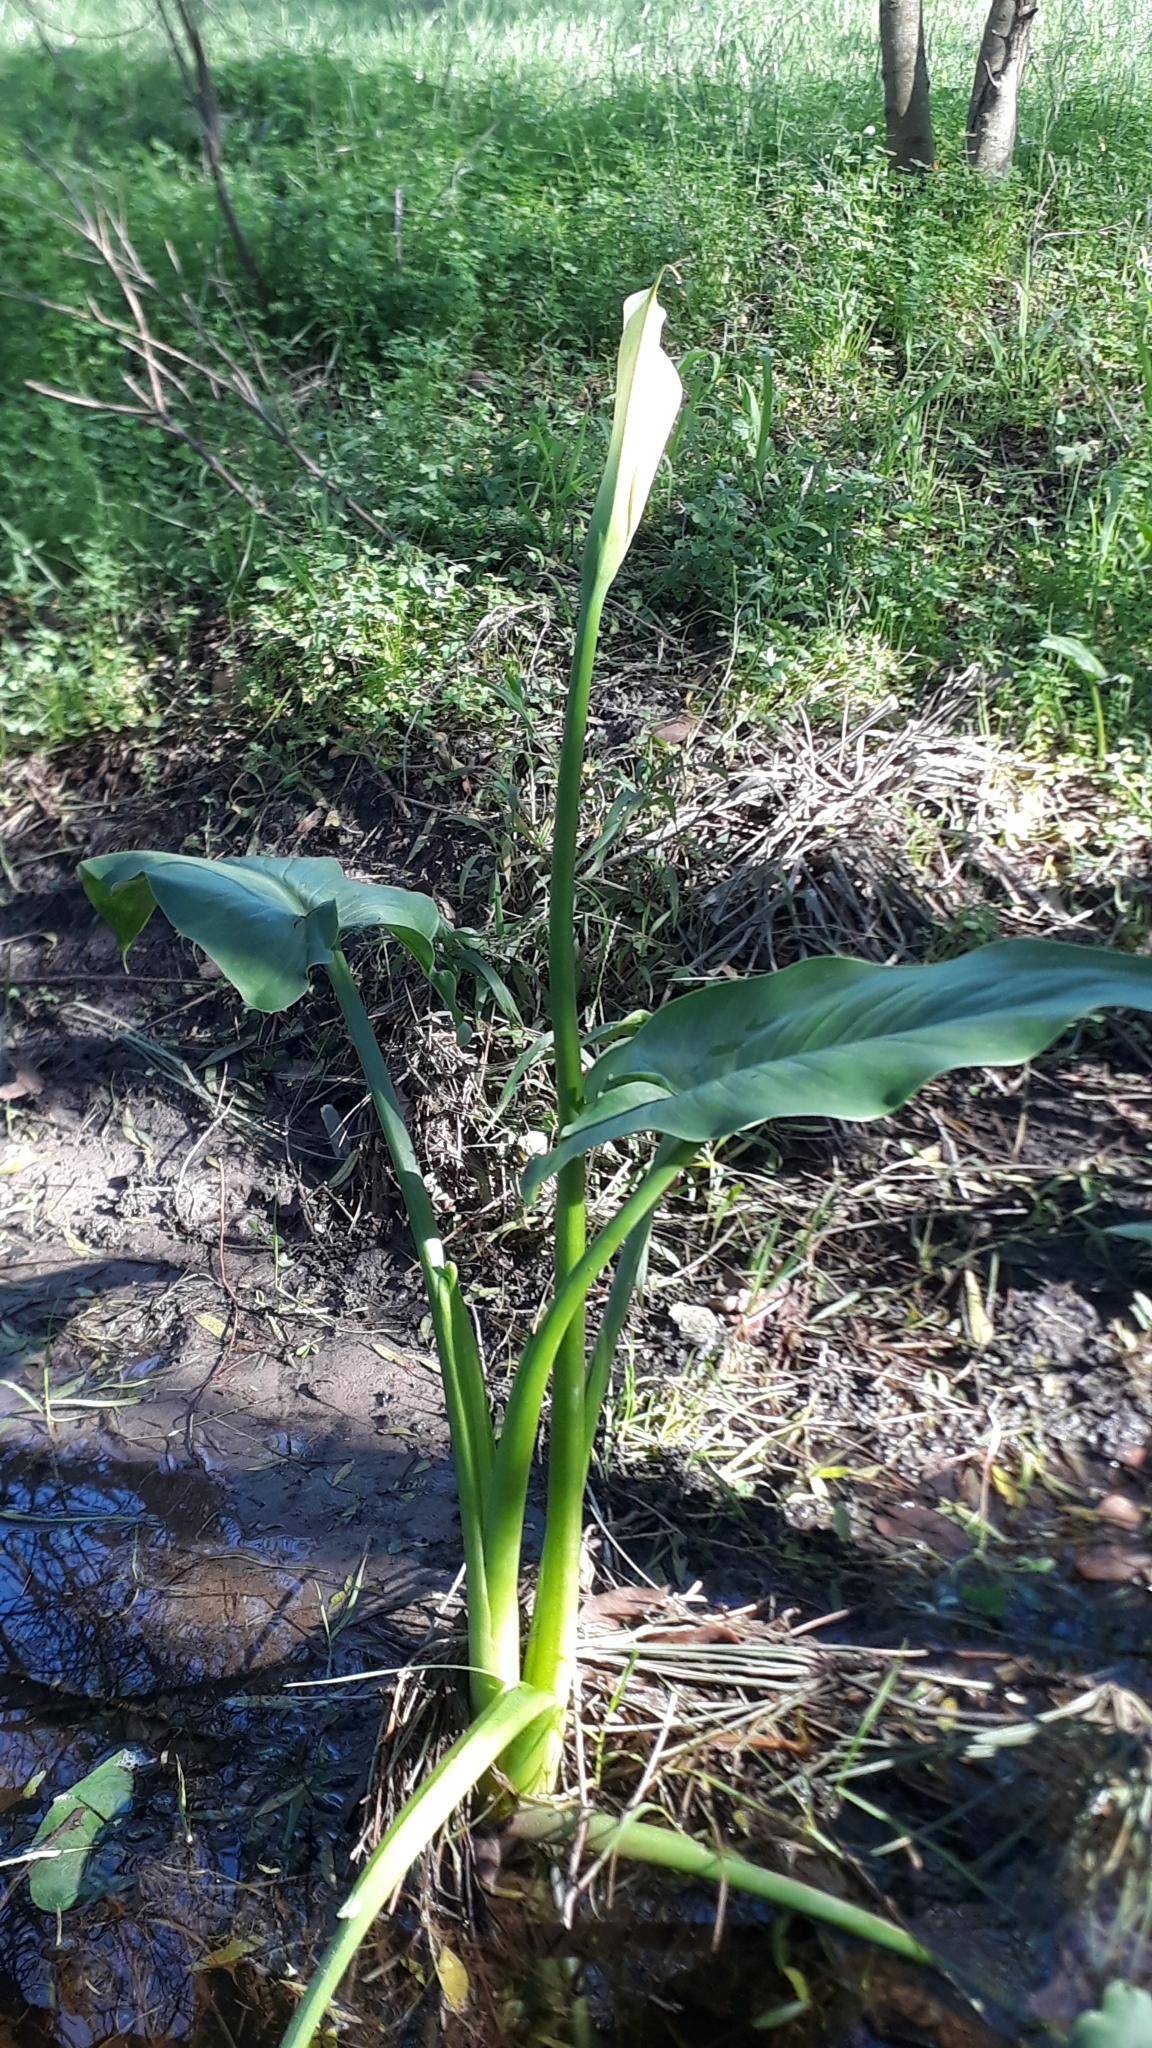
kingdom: Plantae
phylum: Tracheophyta
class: Liliopsida
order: Alismatales
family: Araceae
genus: Zantedeschia
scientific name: Zantedeschia aethiopica
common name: Altar-lily
